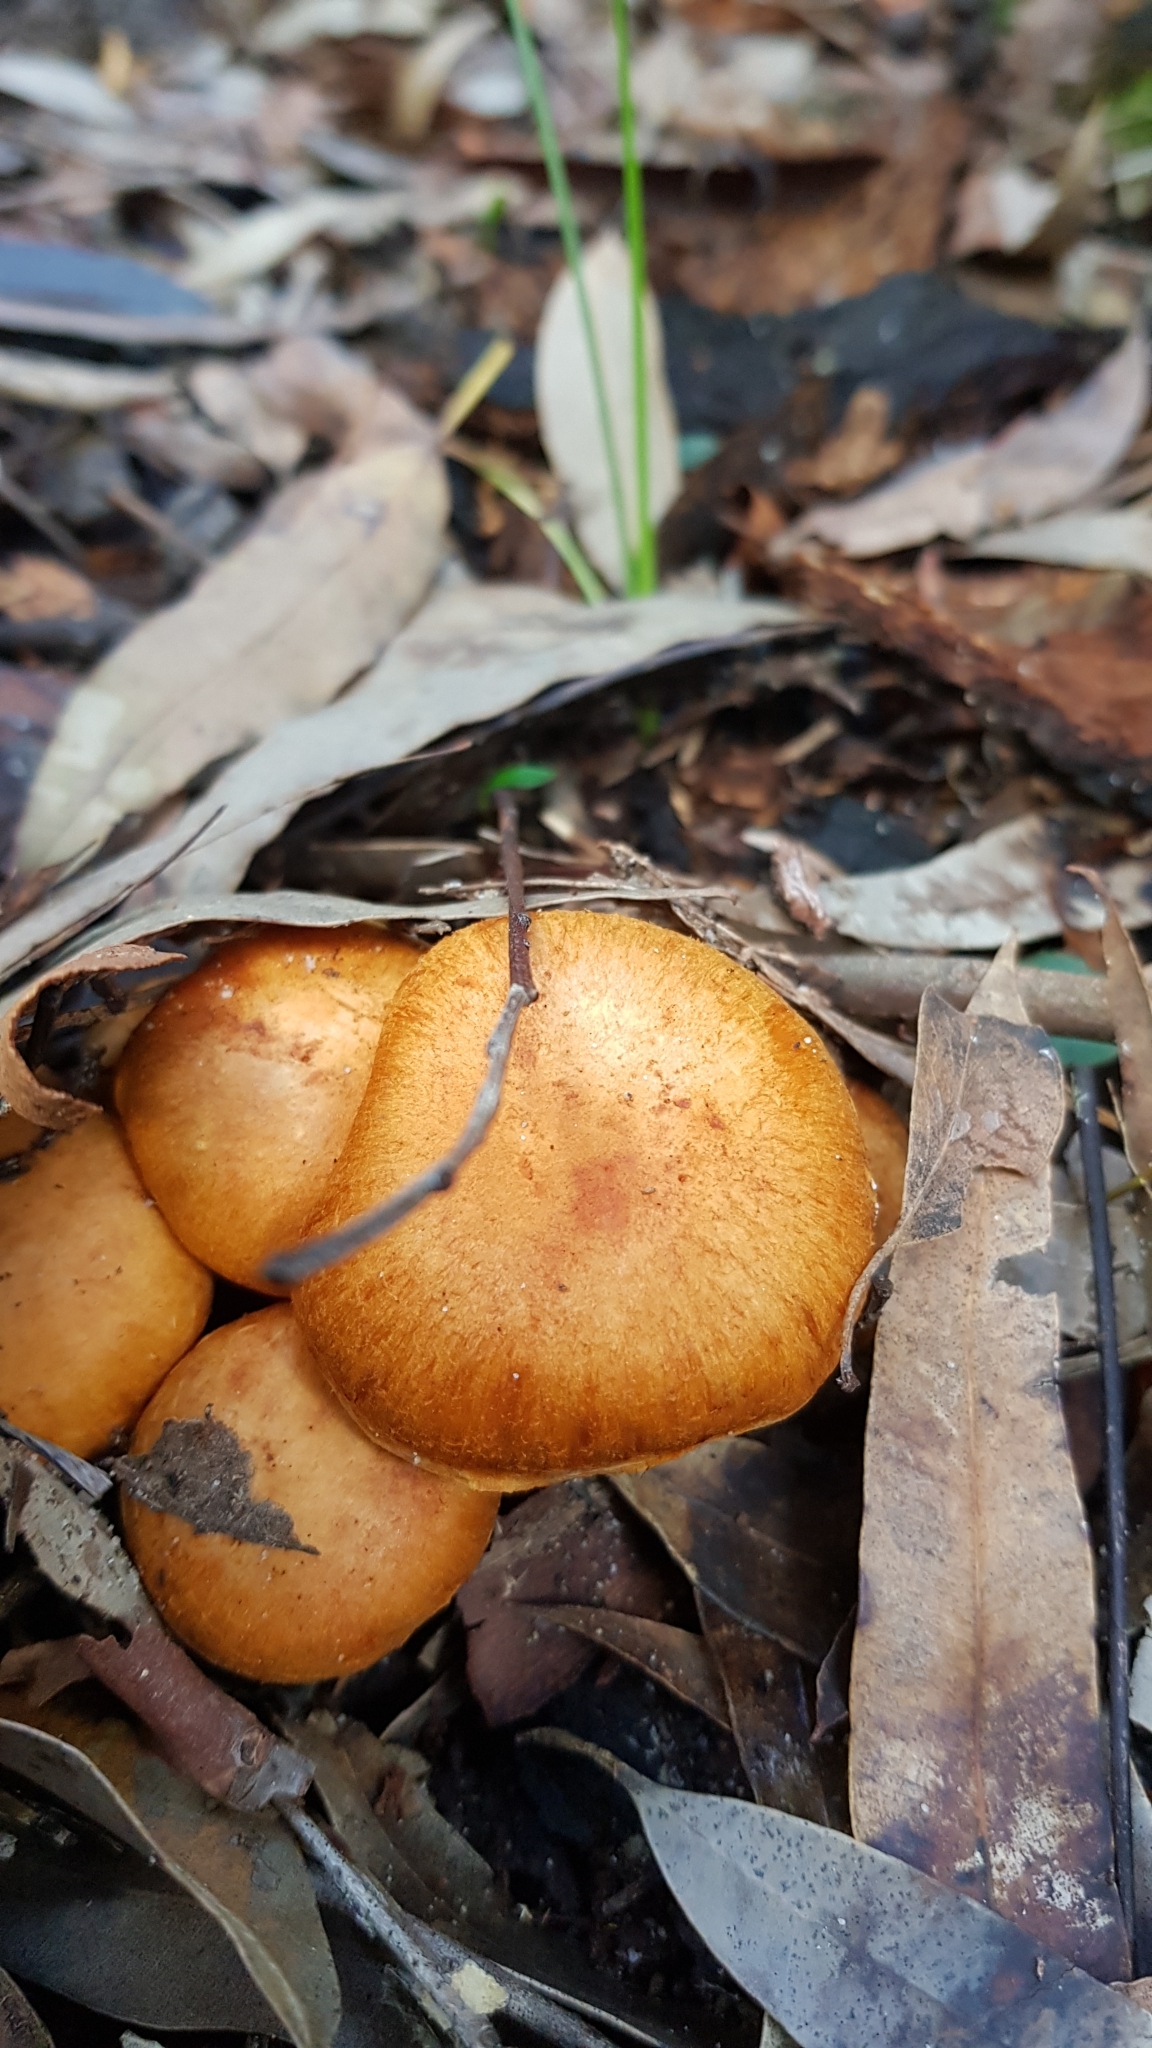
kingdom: Fungi
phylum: Basidiomycota
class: Agaricomycetes
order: Agaricales
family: Hymenogastraceae
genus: Gymnopilus
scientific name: Gymnopilus junonius
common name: Spectacular rustgill
